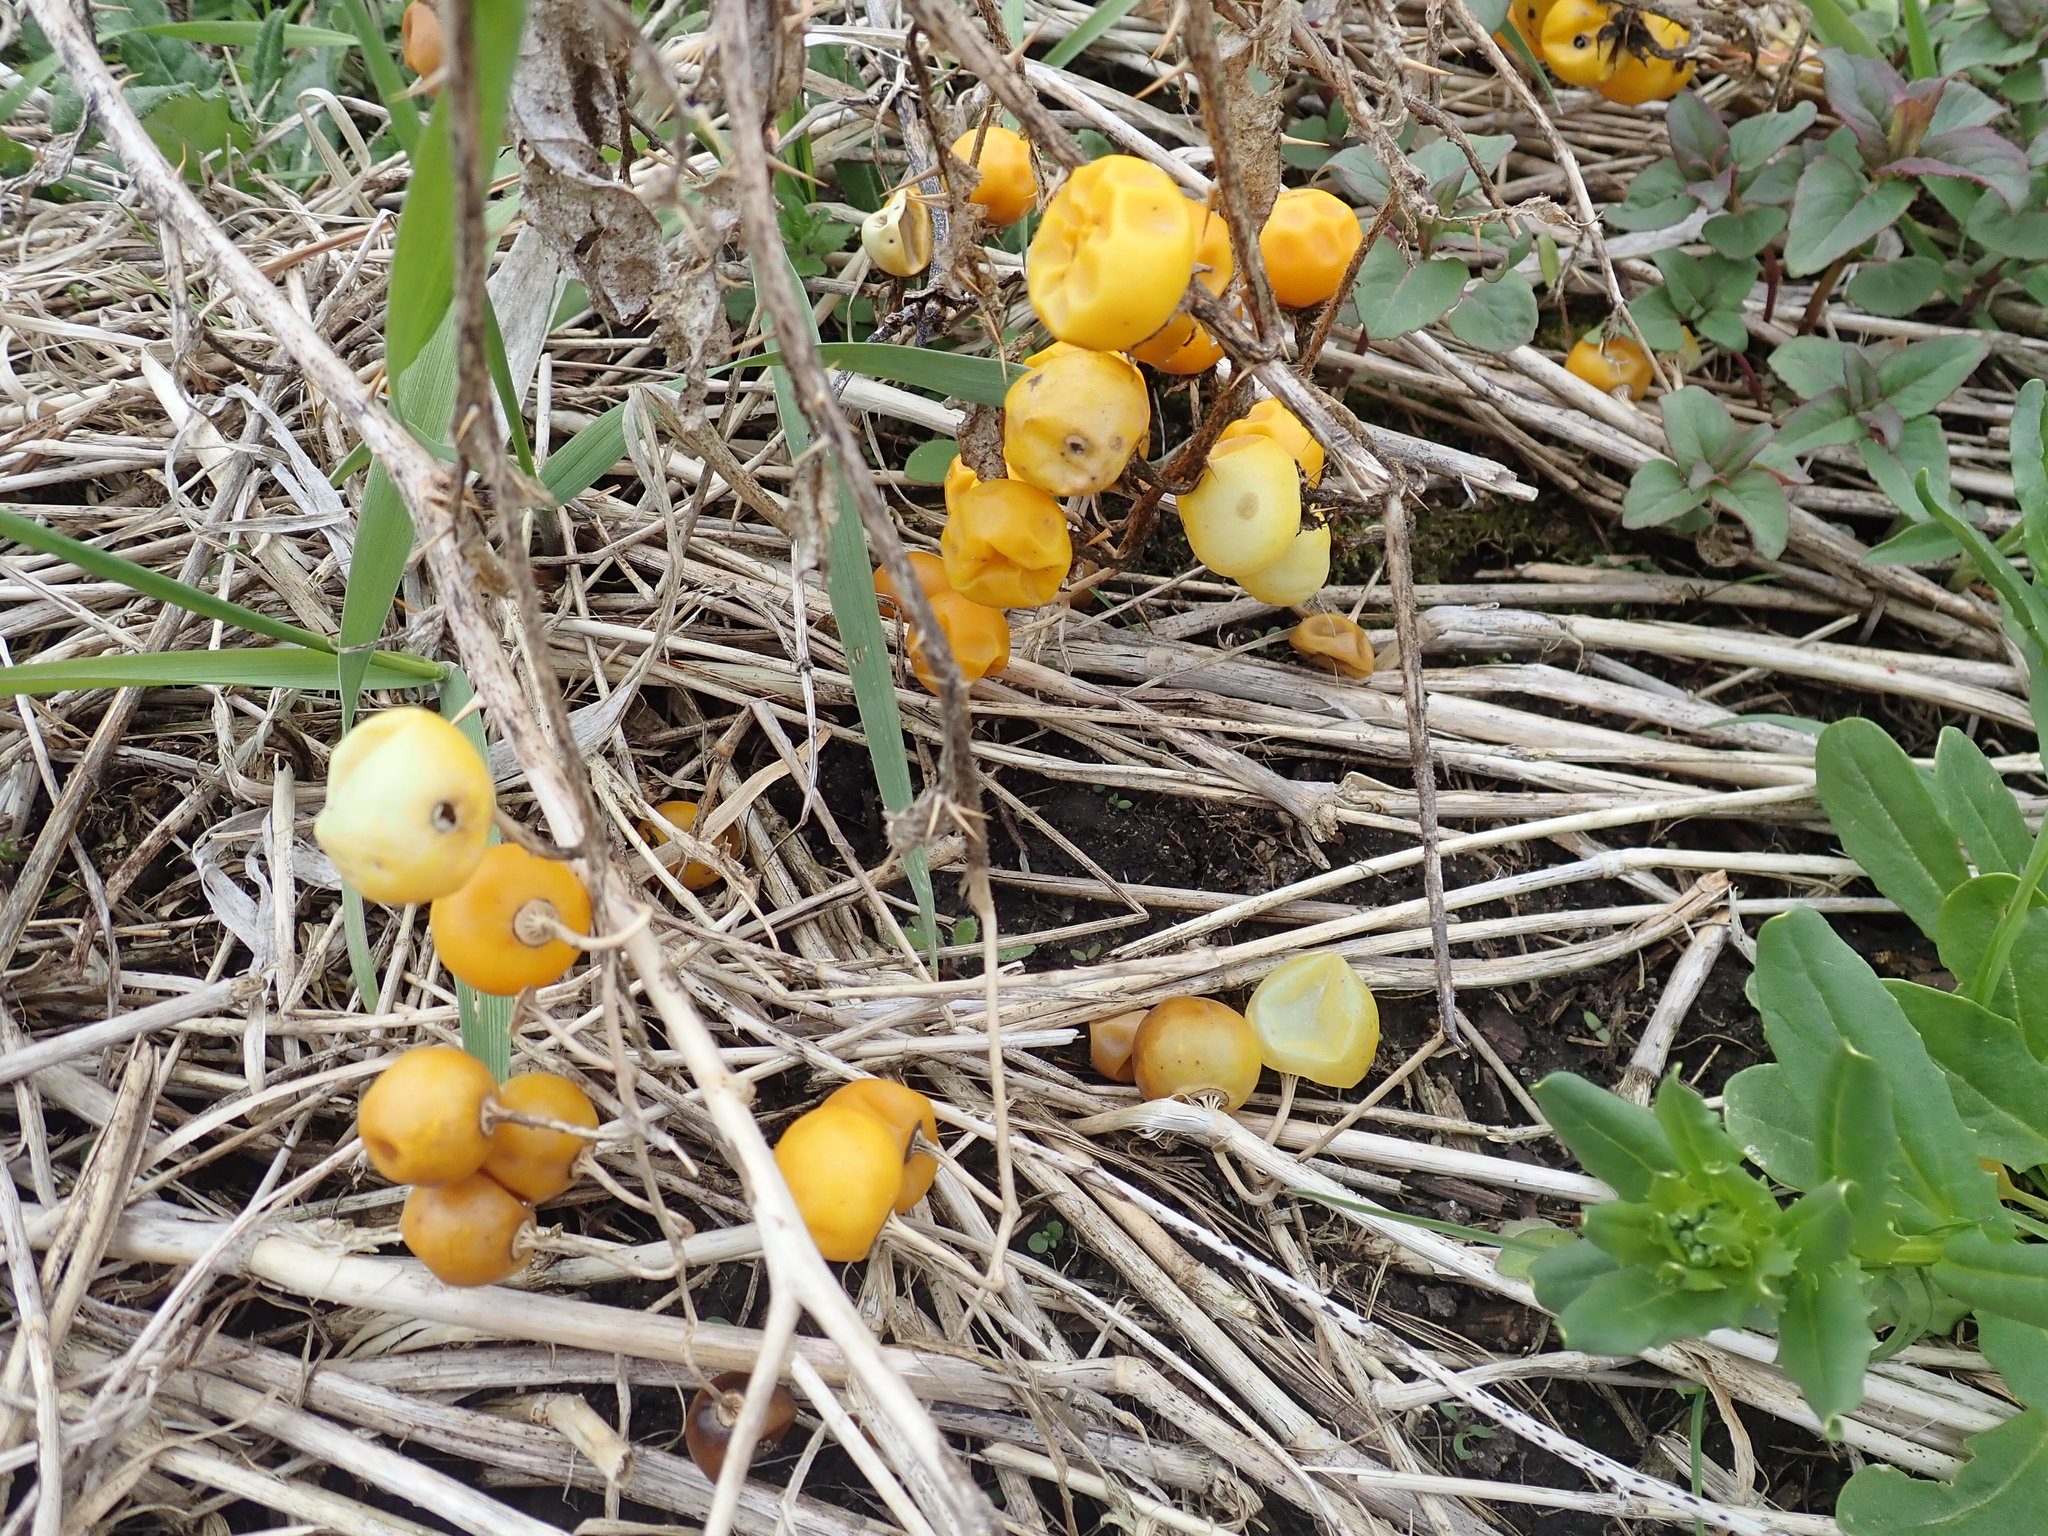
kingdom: Plantae
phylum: Tracheophyta
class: Magnoliopsida
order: Solanales
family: Solanaceae
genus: Solanum
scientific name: Solanum carolinense
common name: Horse-nettle
